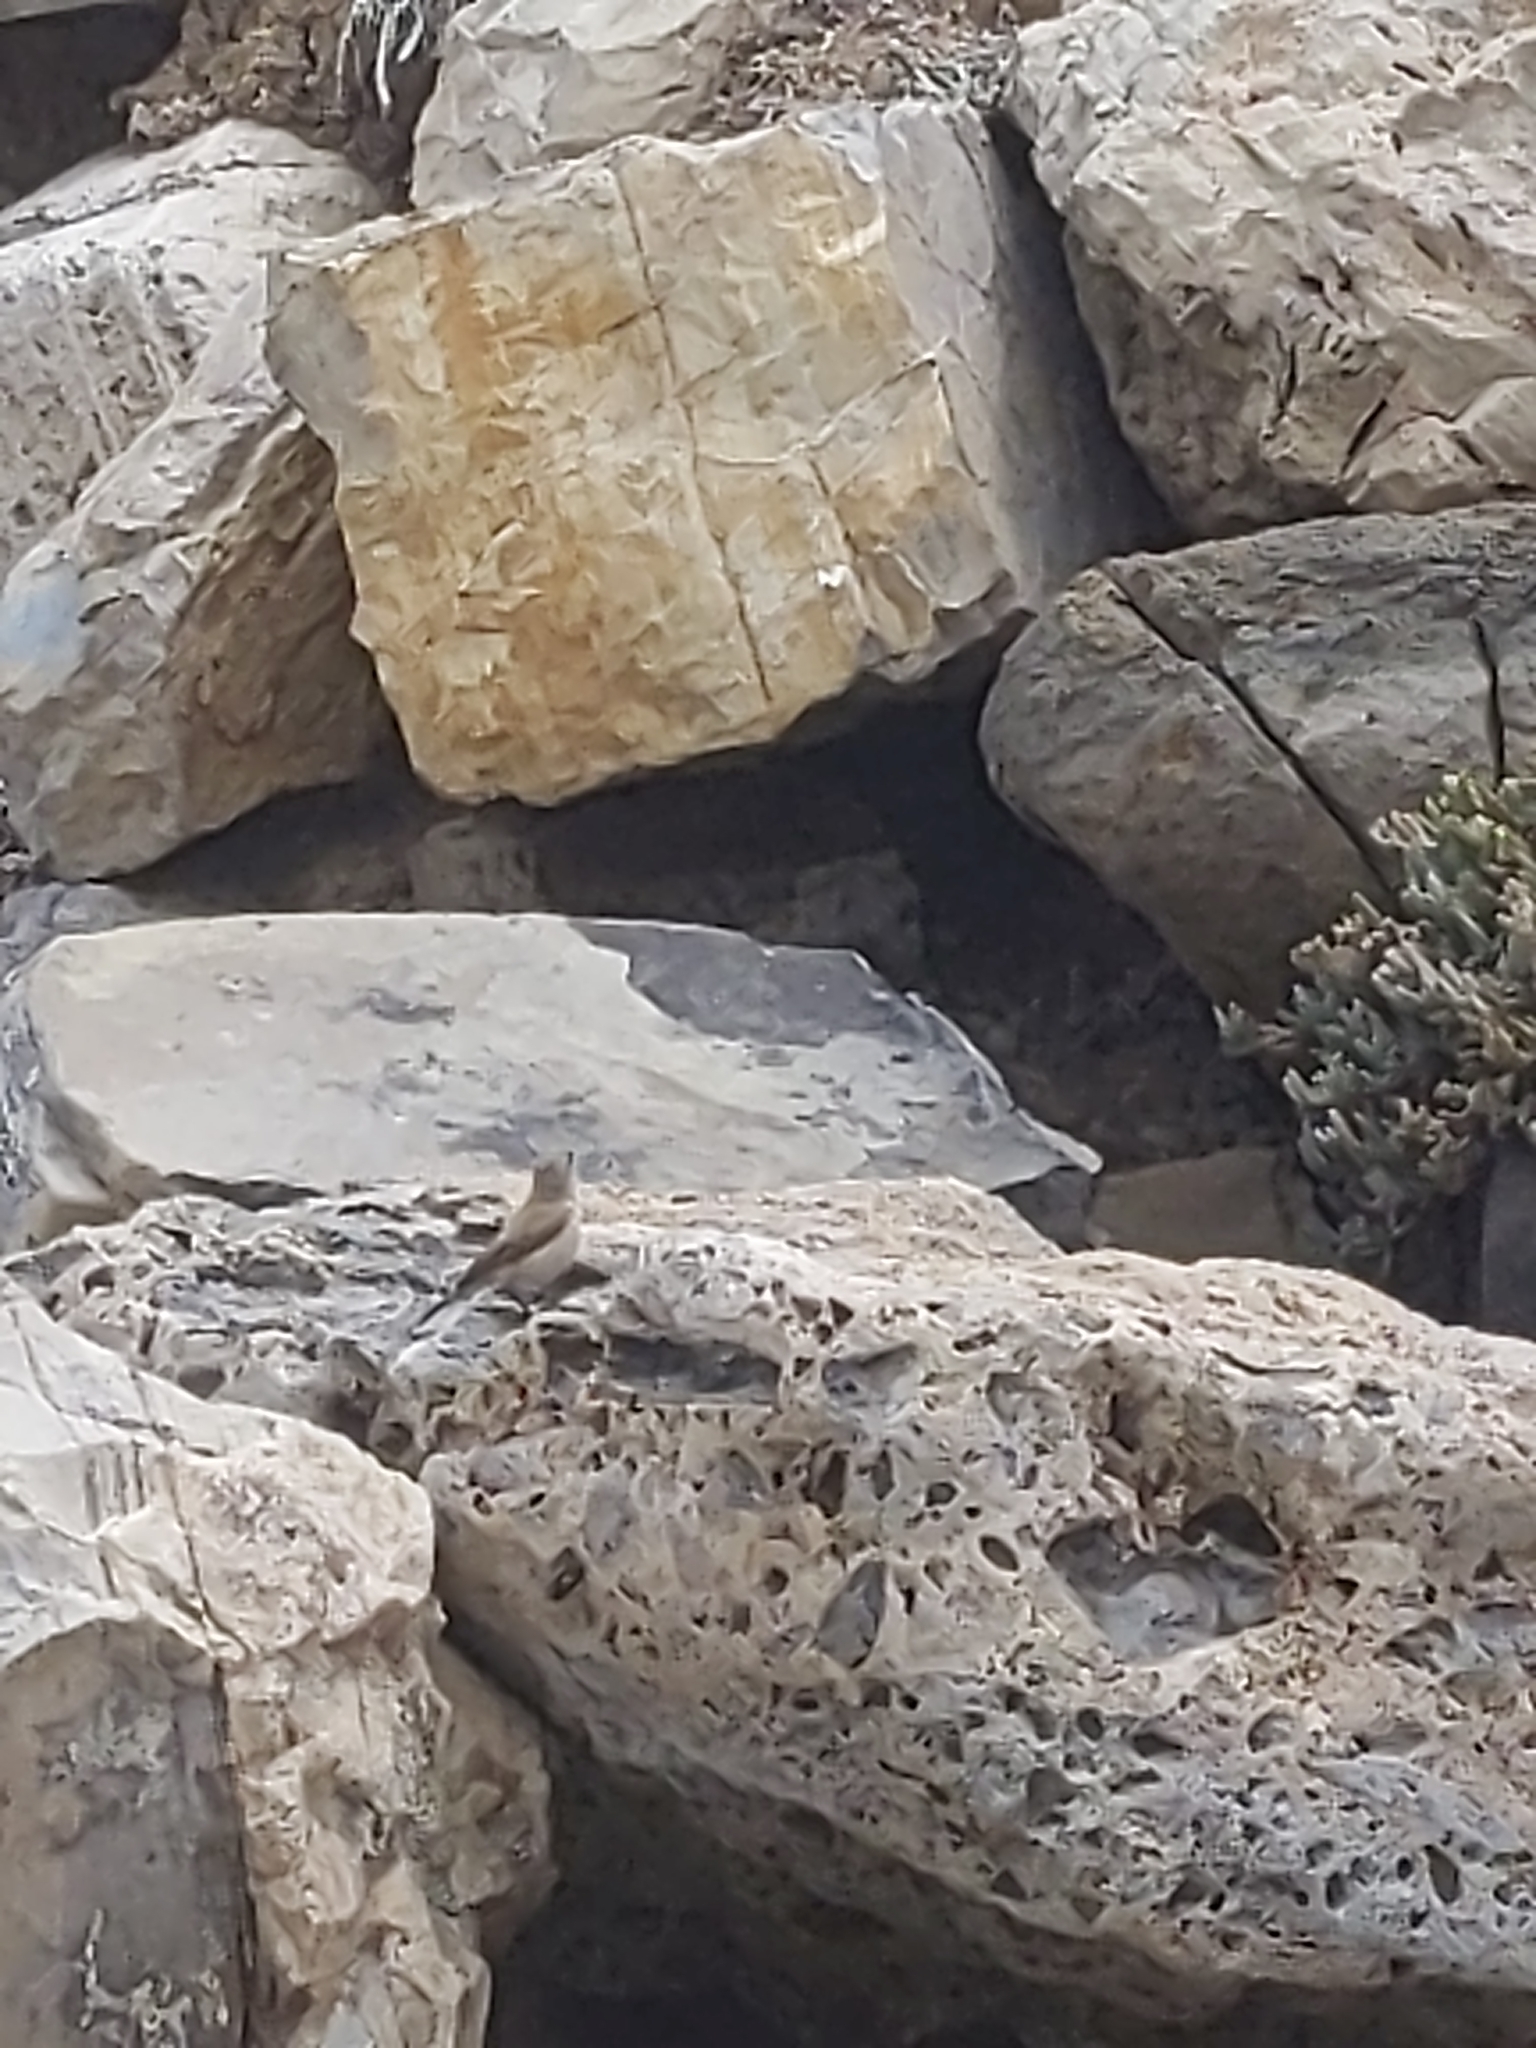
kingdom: Animalia
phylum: Chordata
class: Aves
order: Passeriformes
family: Troglodytidae
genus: Salpinctes
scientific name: Salpinctes obsoletus
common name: Rock wren
